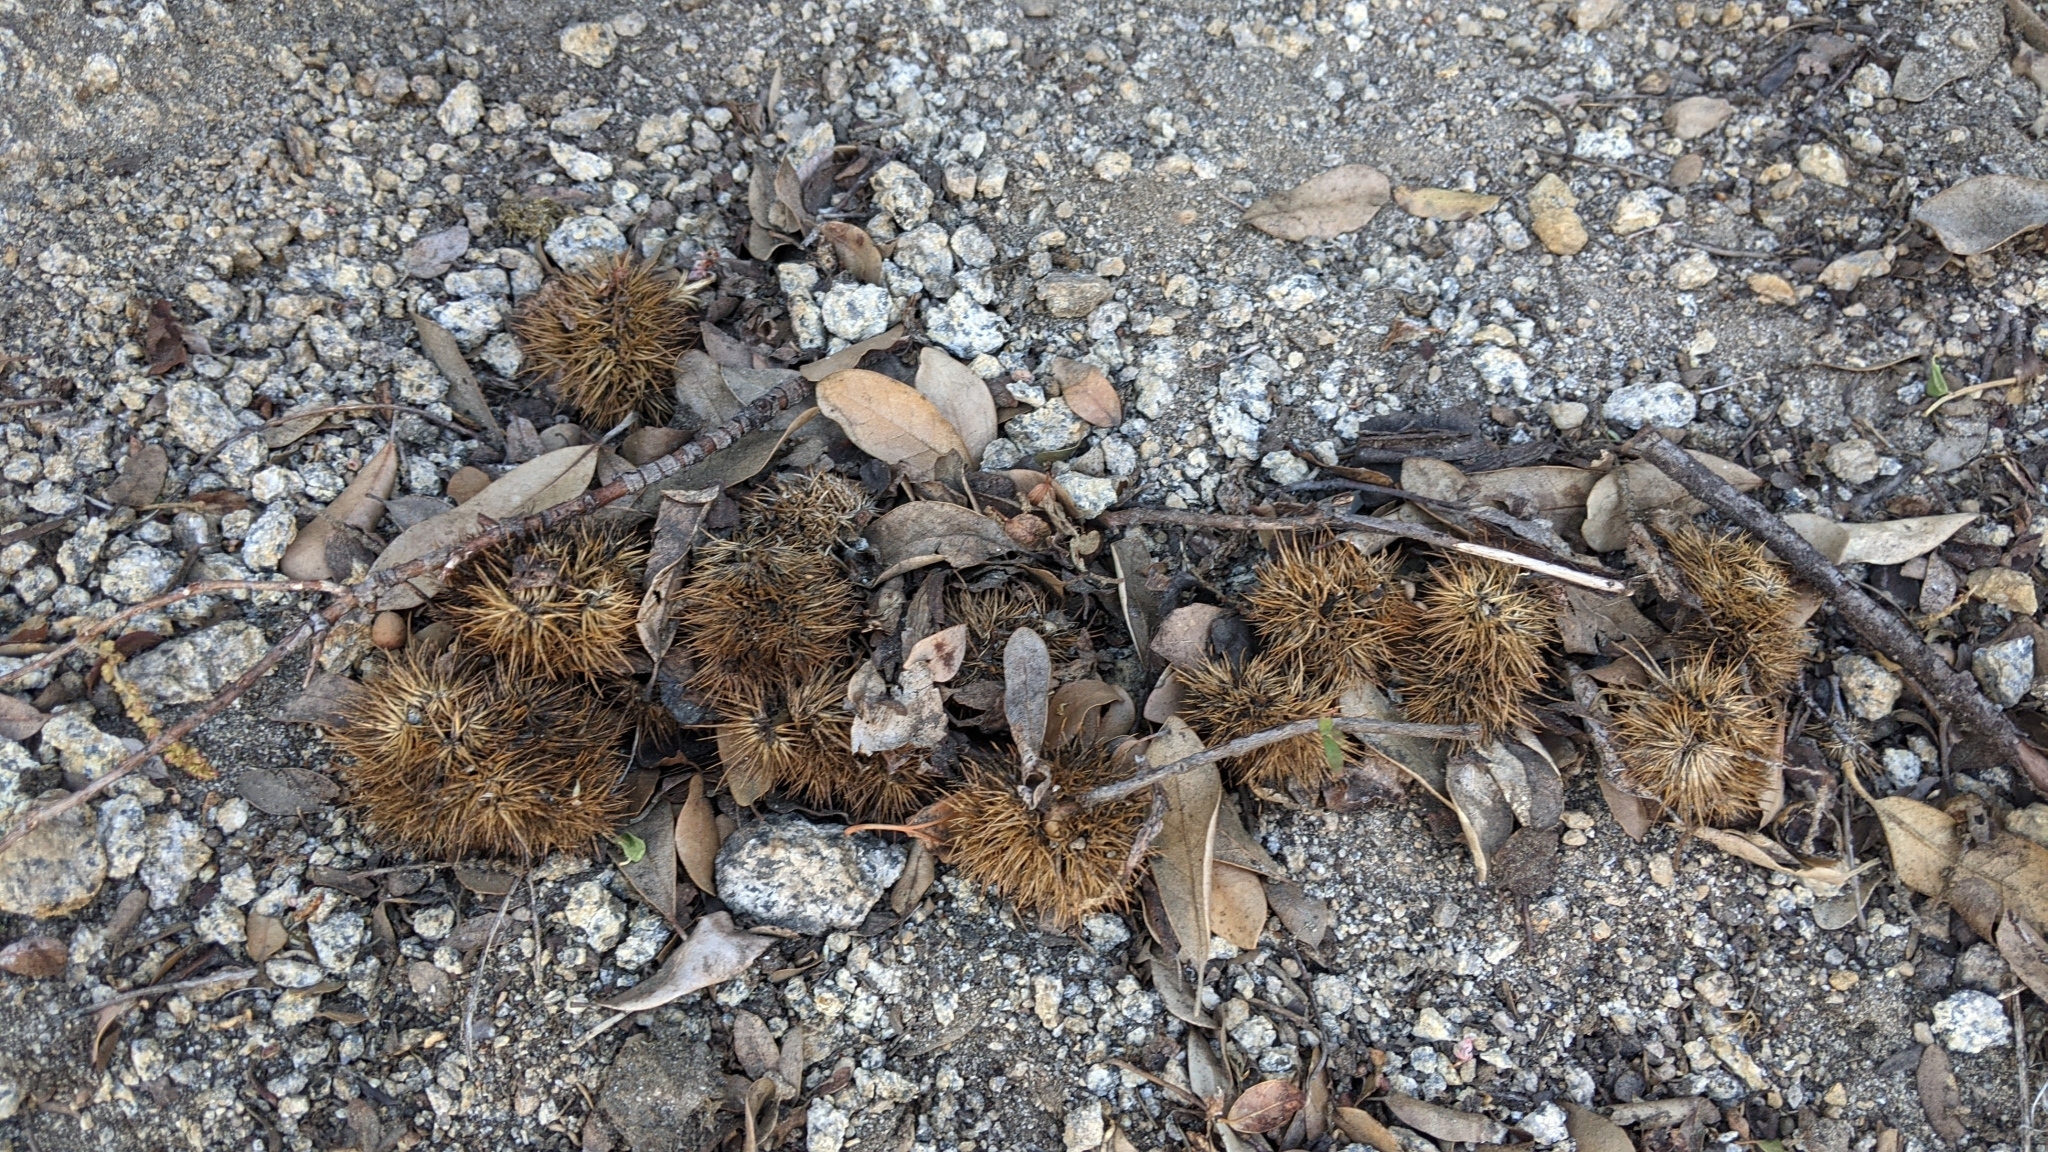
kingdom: Plantae
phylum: Tracheophyta
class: Magnoliopsida
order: Fagales
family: Fagaceae
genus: Chrysolepis
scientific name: Chrysolepis sempervirens
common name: Bush chinquapin
